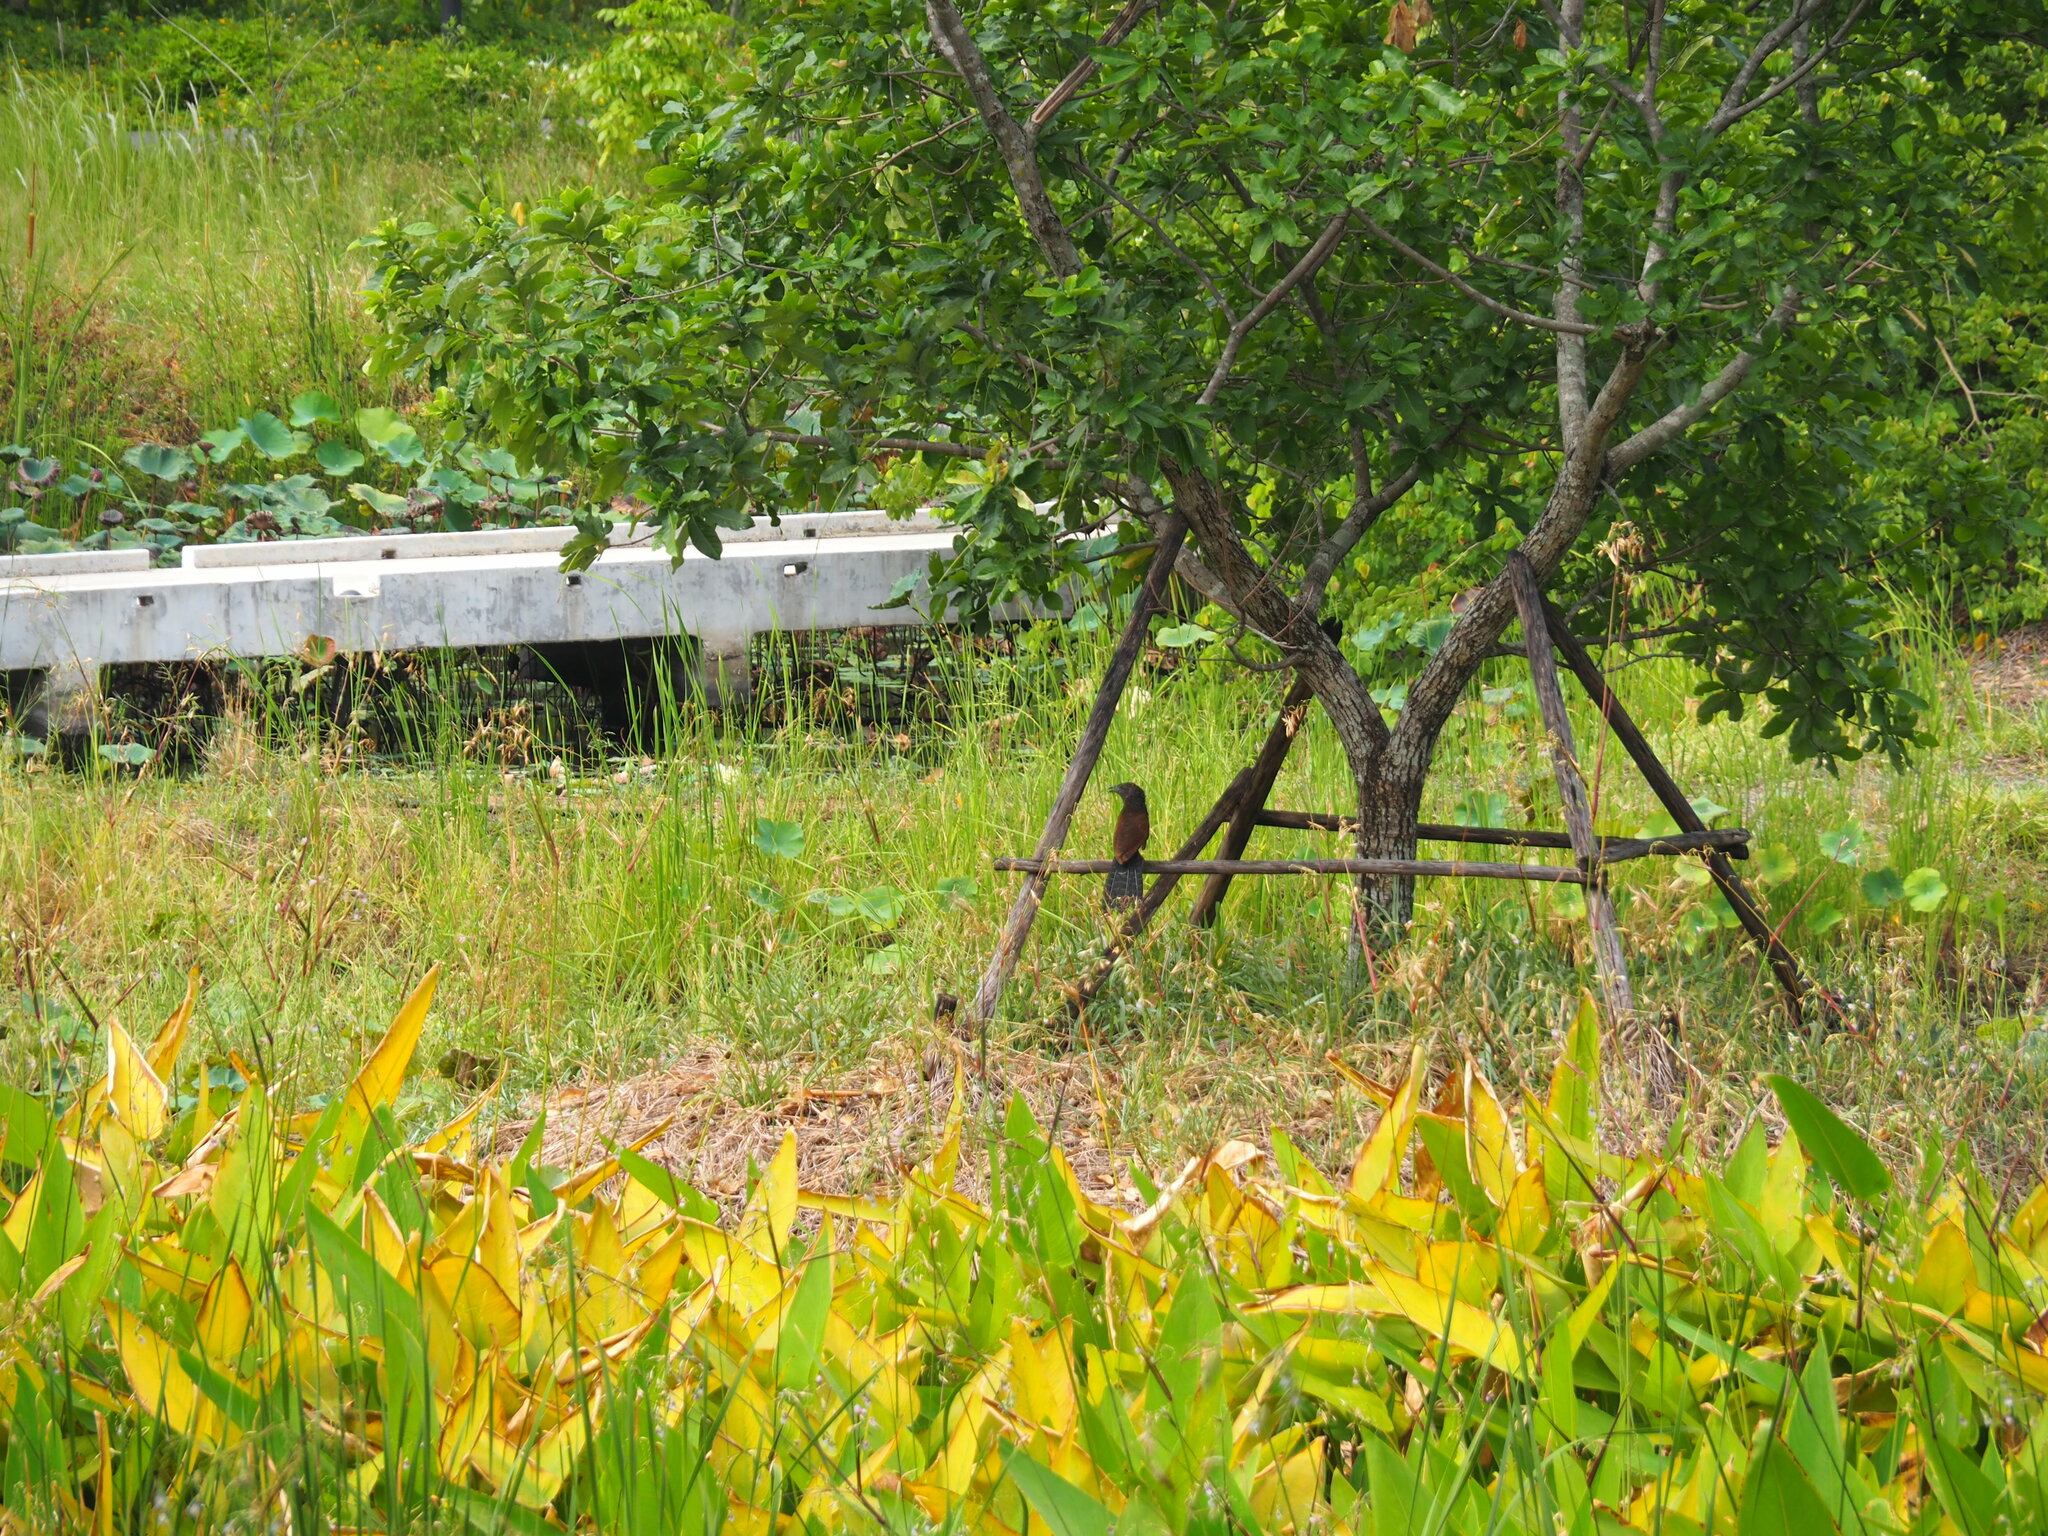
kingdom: Animalia
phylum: Chordata
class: Aves
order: Cuculiformes
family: Cuculidae
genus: Centropus
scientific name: Centropus sinensis
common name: Greater coucal
